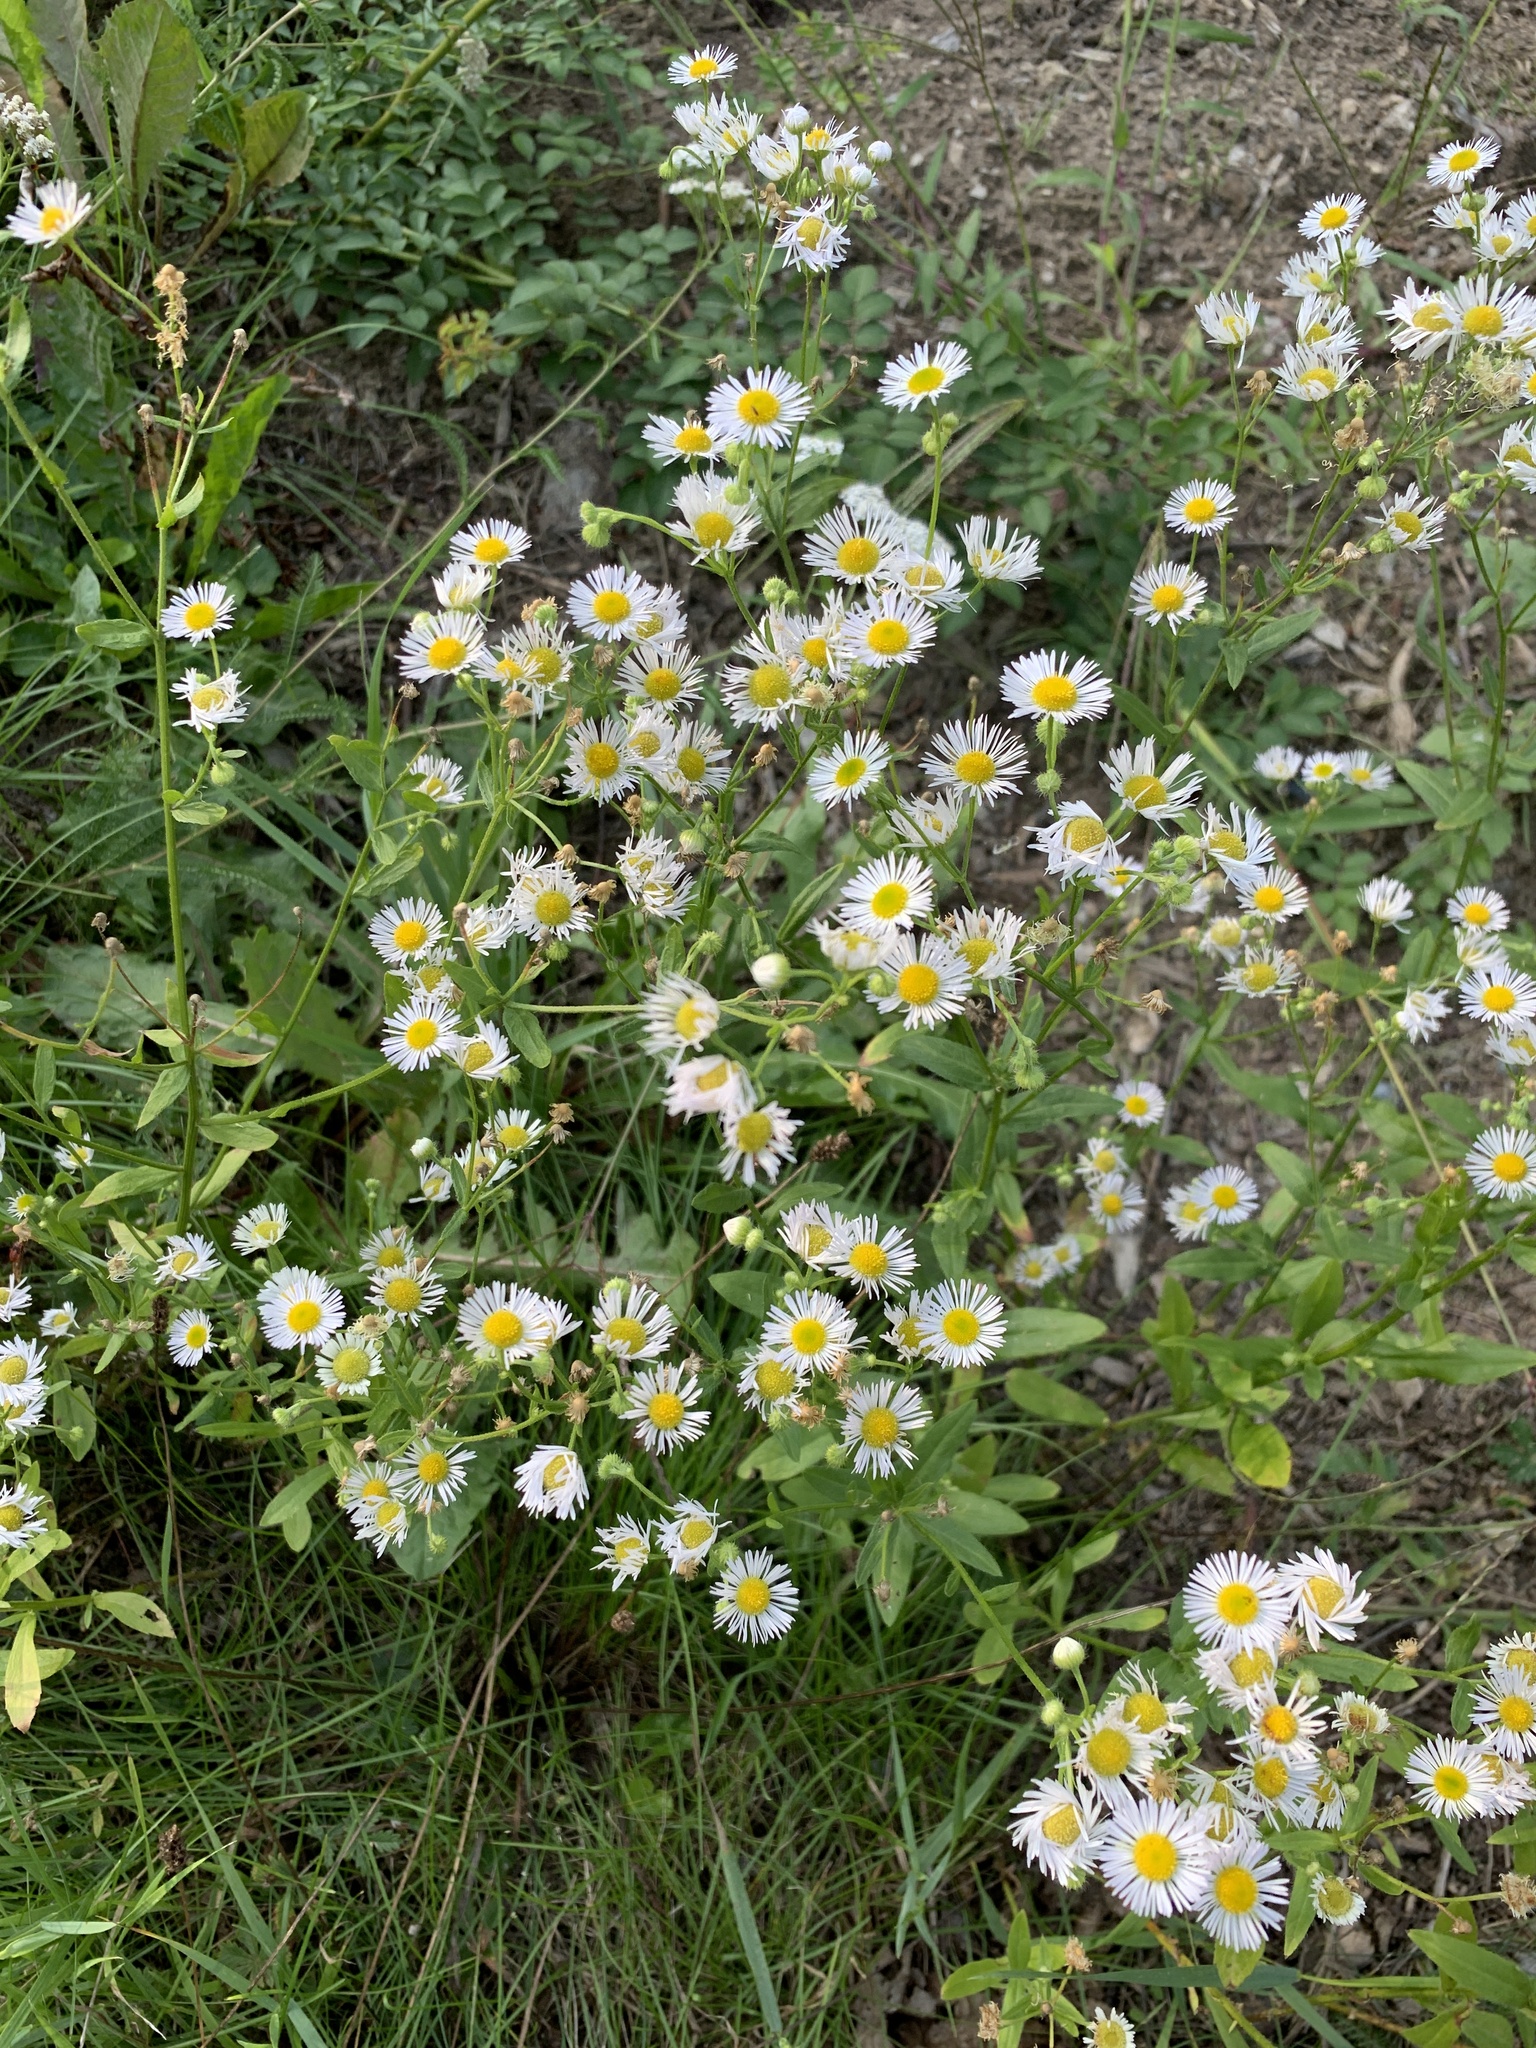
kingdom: Plantae
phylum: Tracheophyta
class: Magnoliopsida
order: Asterales
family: Asteraceae
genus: Erigeron
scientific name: Erigeron annuus
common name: Tall fleabane
